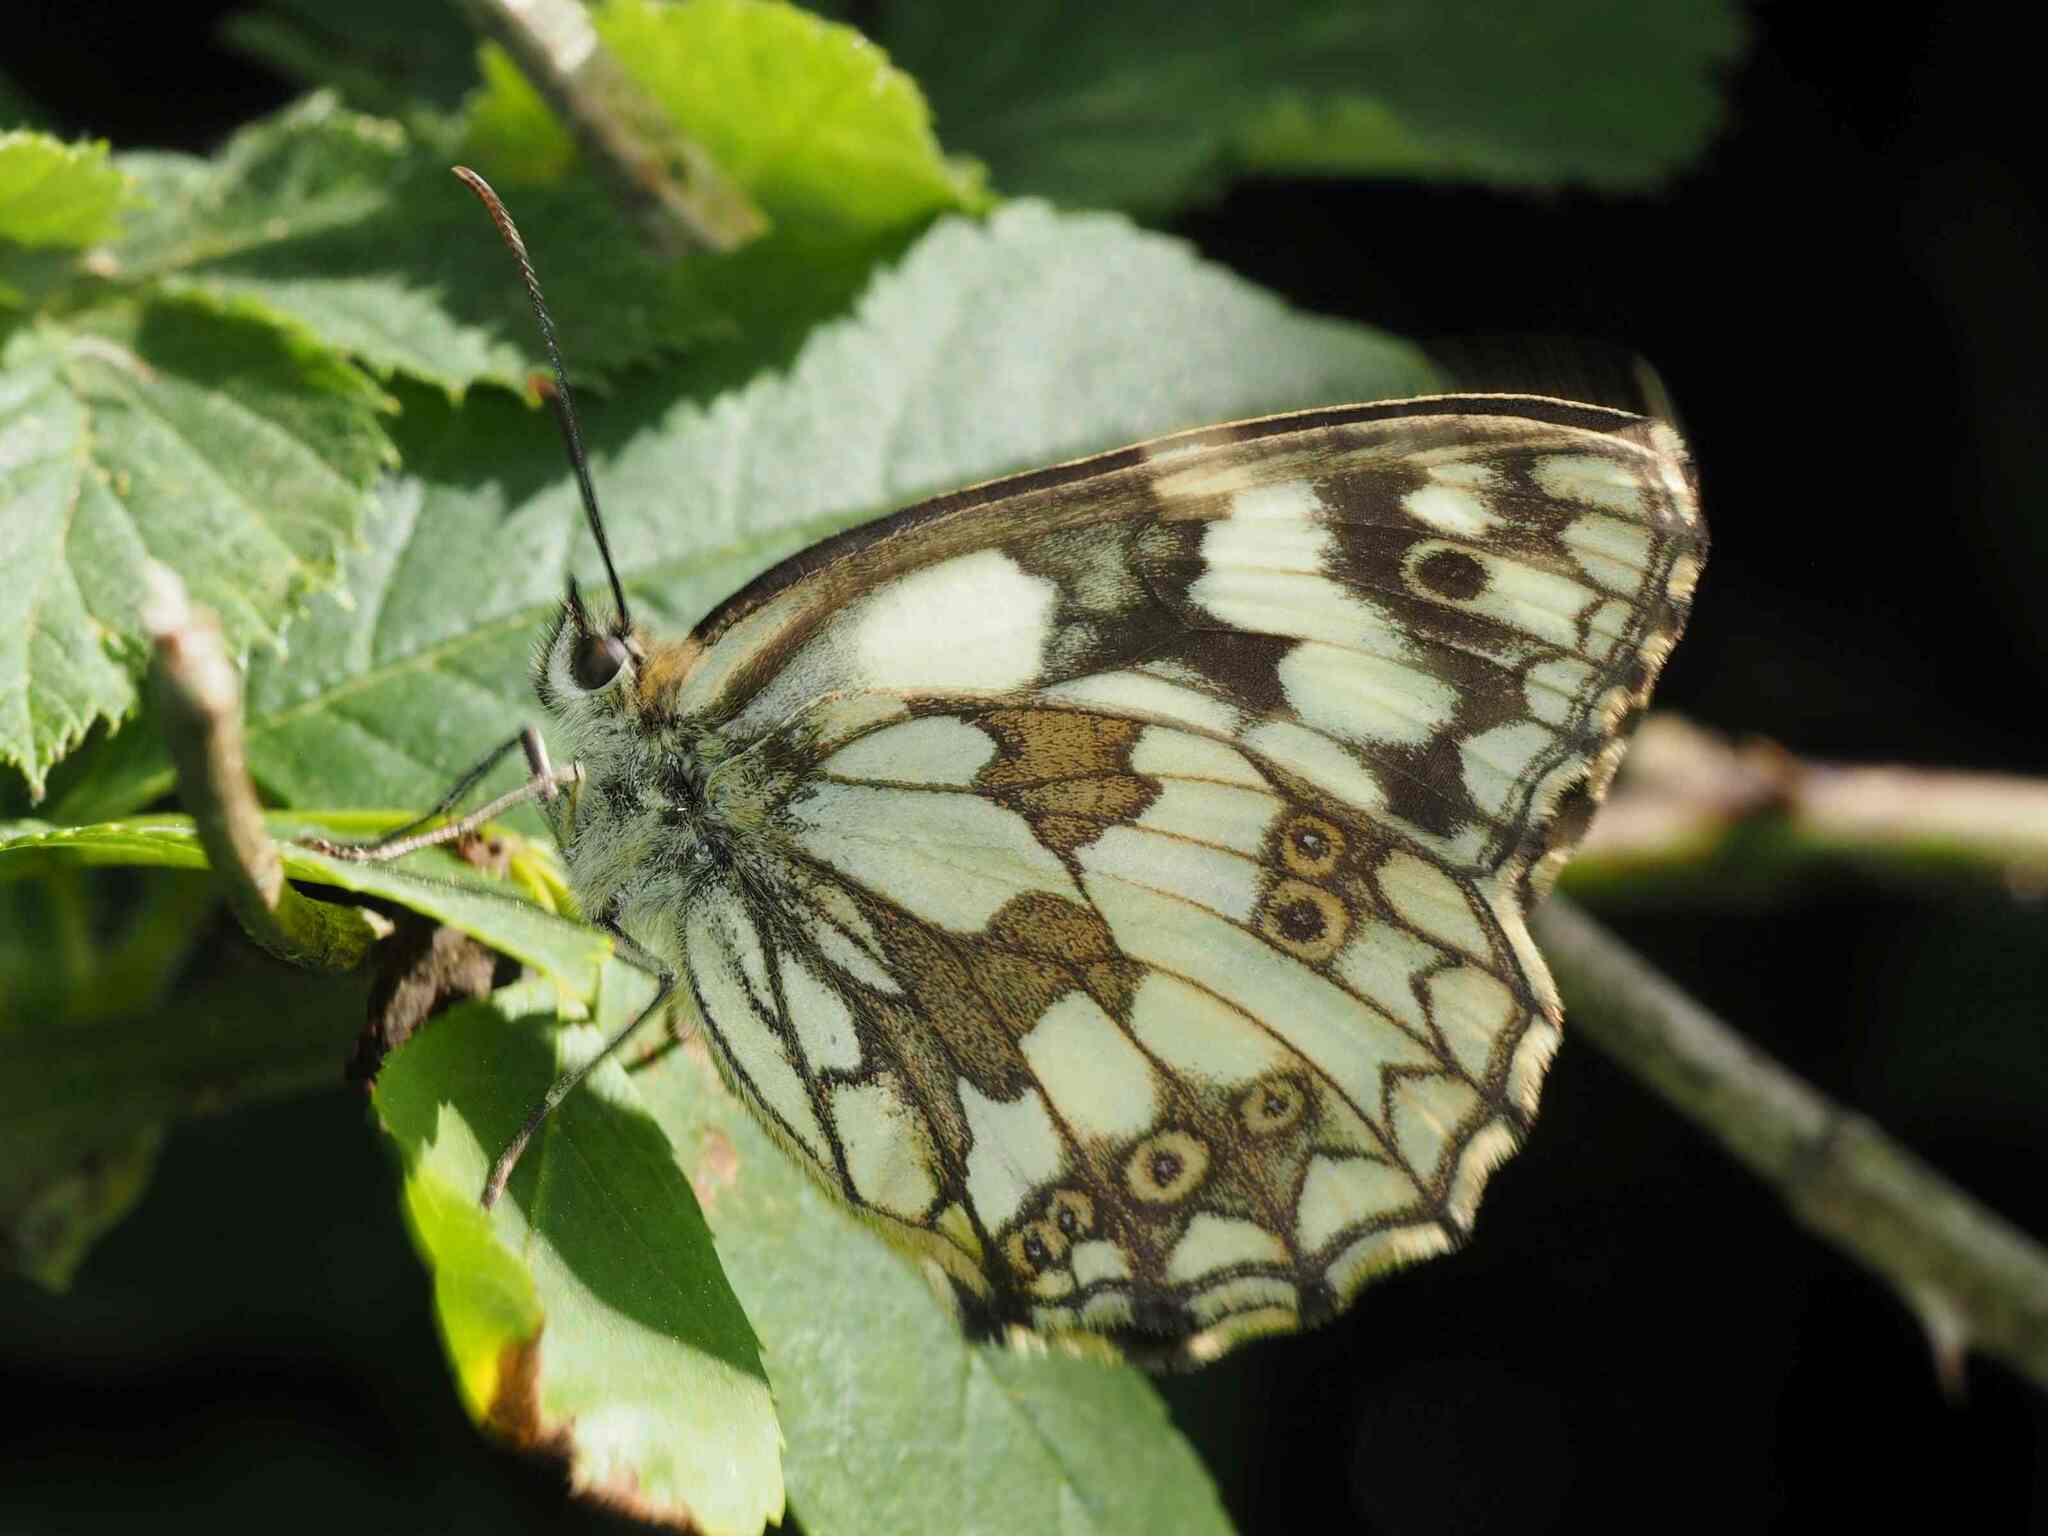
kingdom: Animalia
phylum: Arthropoda
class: Insecta
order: Lepidoptera
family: Nymphalidae
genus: Melanargia
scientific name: Melanargia galathea
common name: Marbled white
